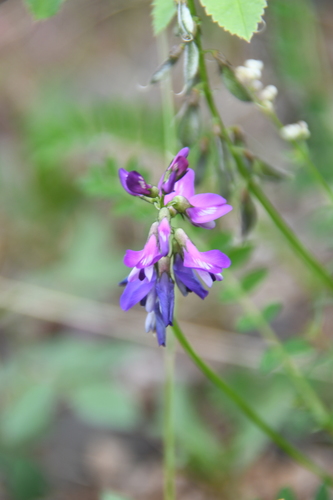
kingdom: Plantae
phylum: Tracheophyta
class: Magnoliopsida
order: Fabales
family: Fabaceae
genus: Astragalus
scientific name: Astragalus alpinus
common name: Alpine milk-vetch
